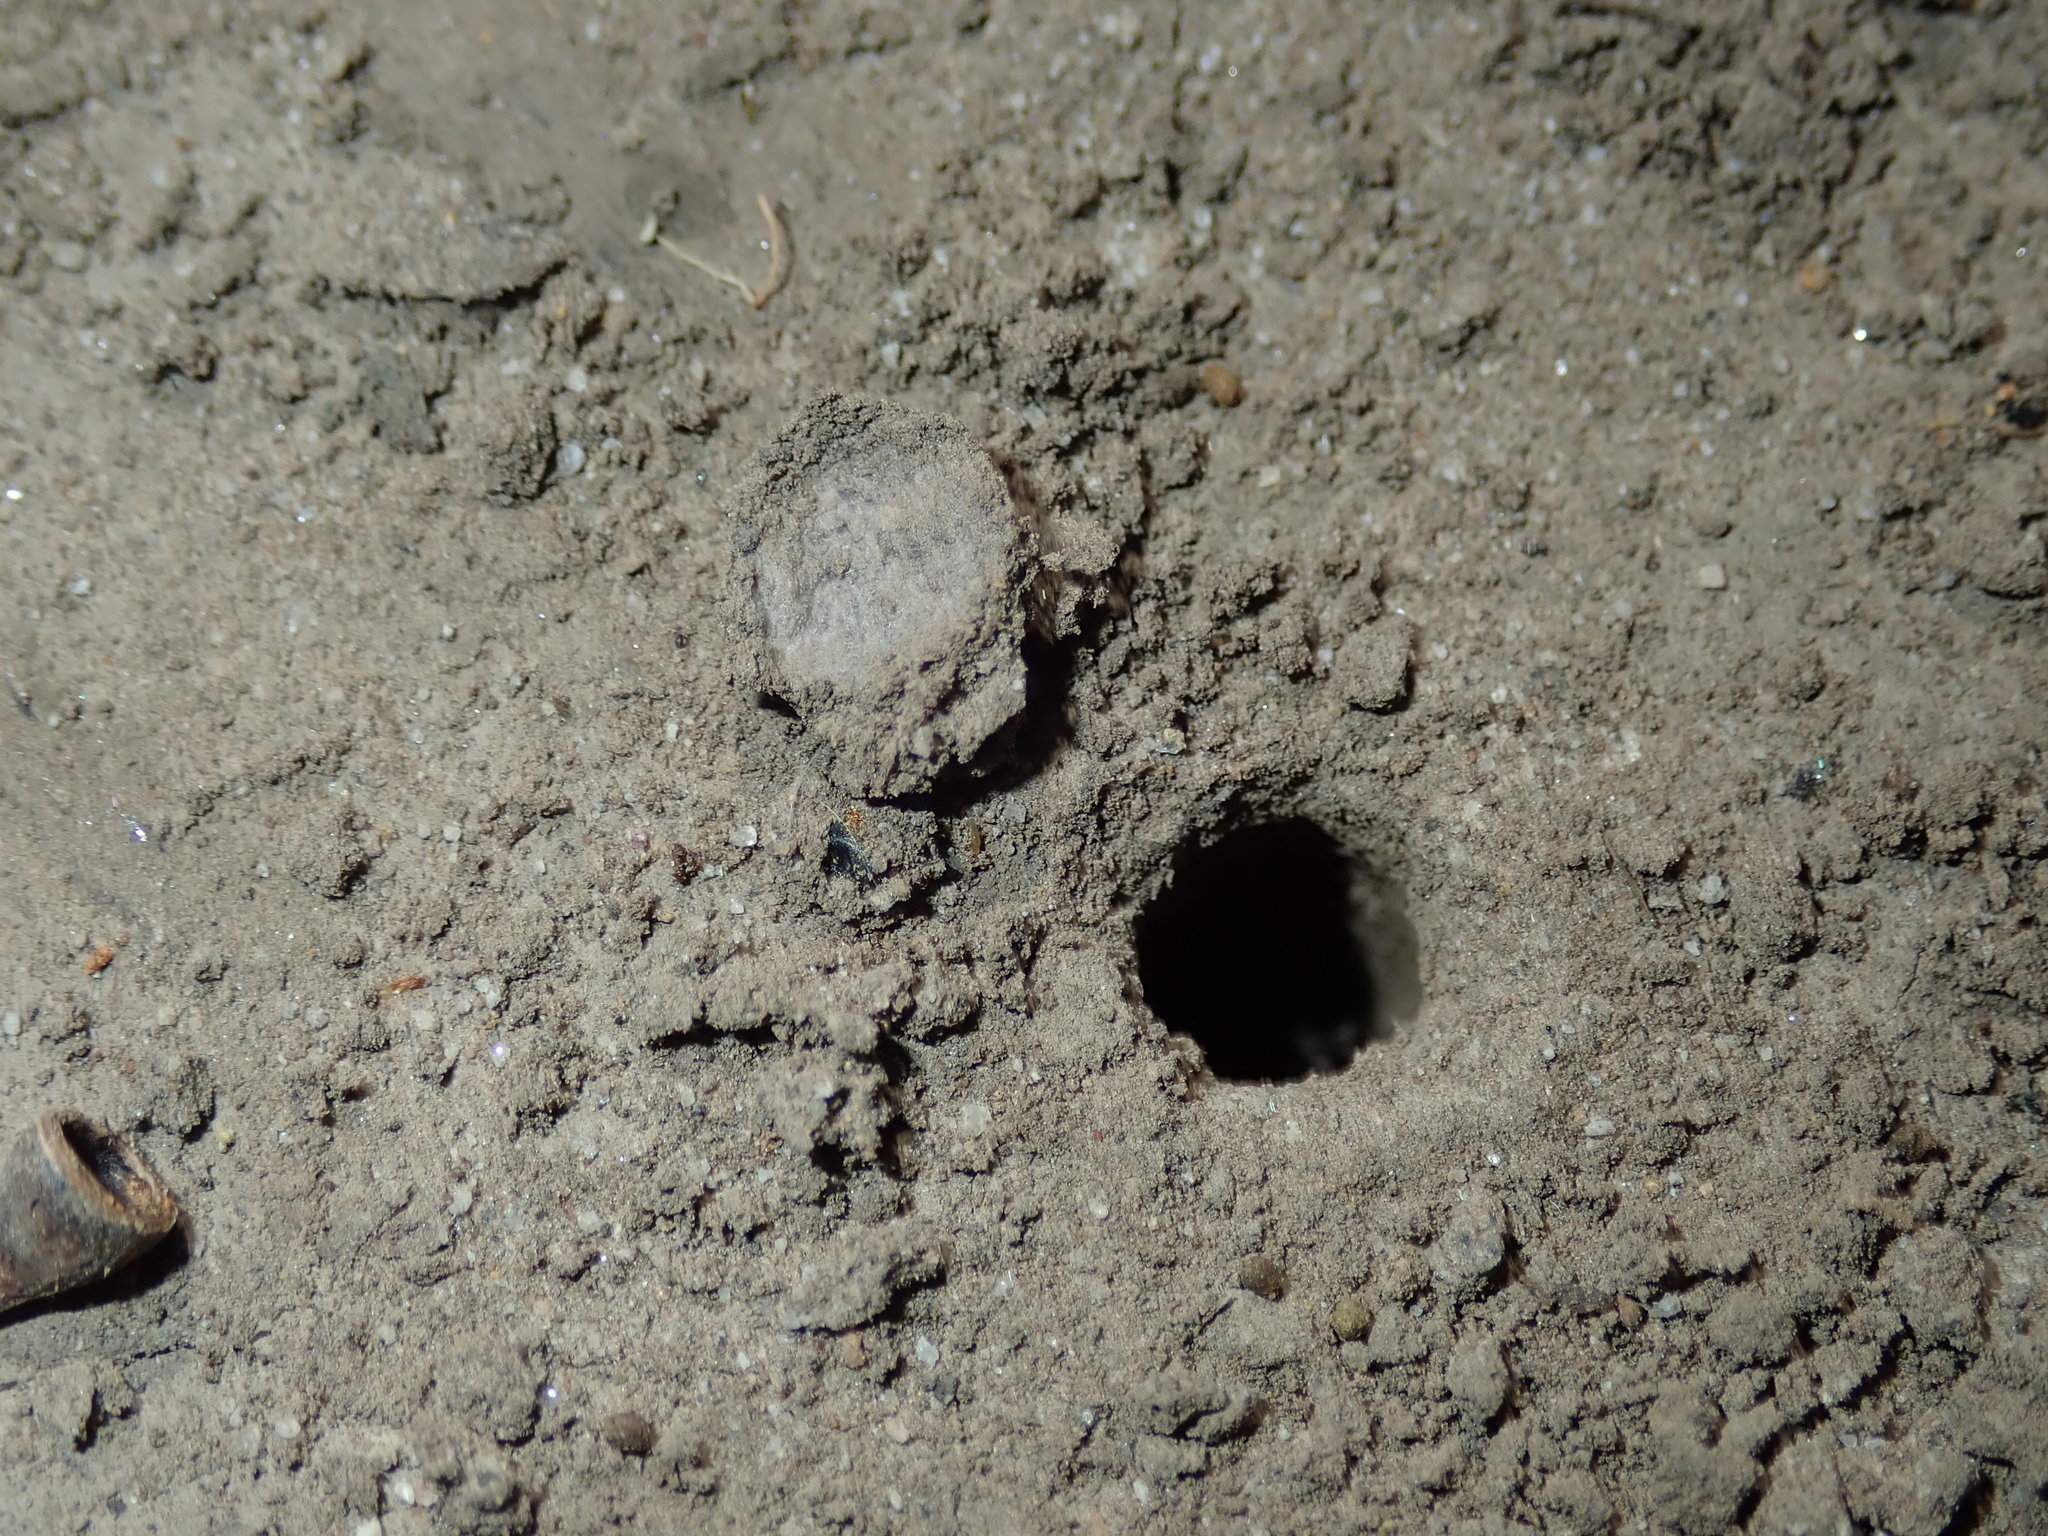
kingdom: Animalia
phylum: Arthropoda
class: Arachnida
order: Araneae
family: Lycosidae
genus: Portacosa
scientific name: Portacosa cinerea
